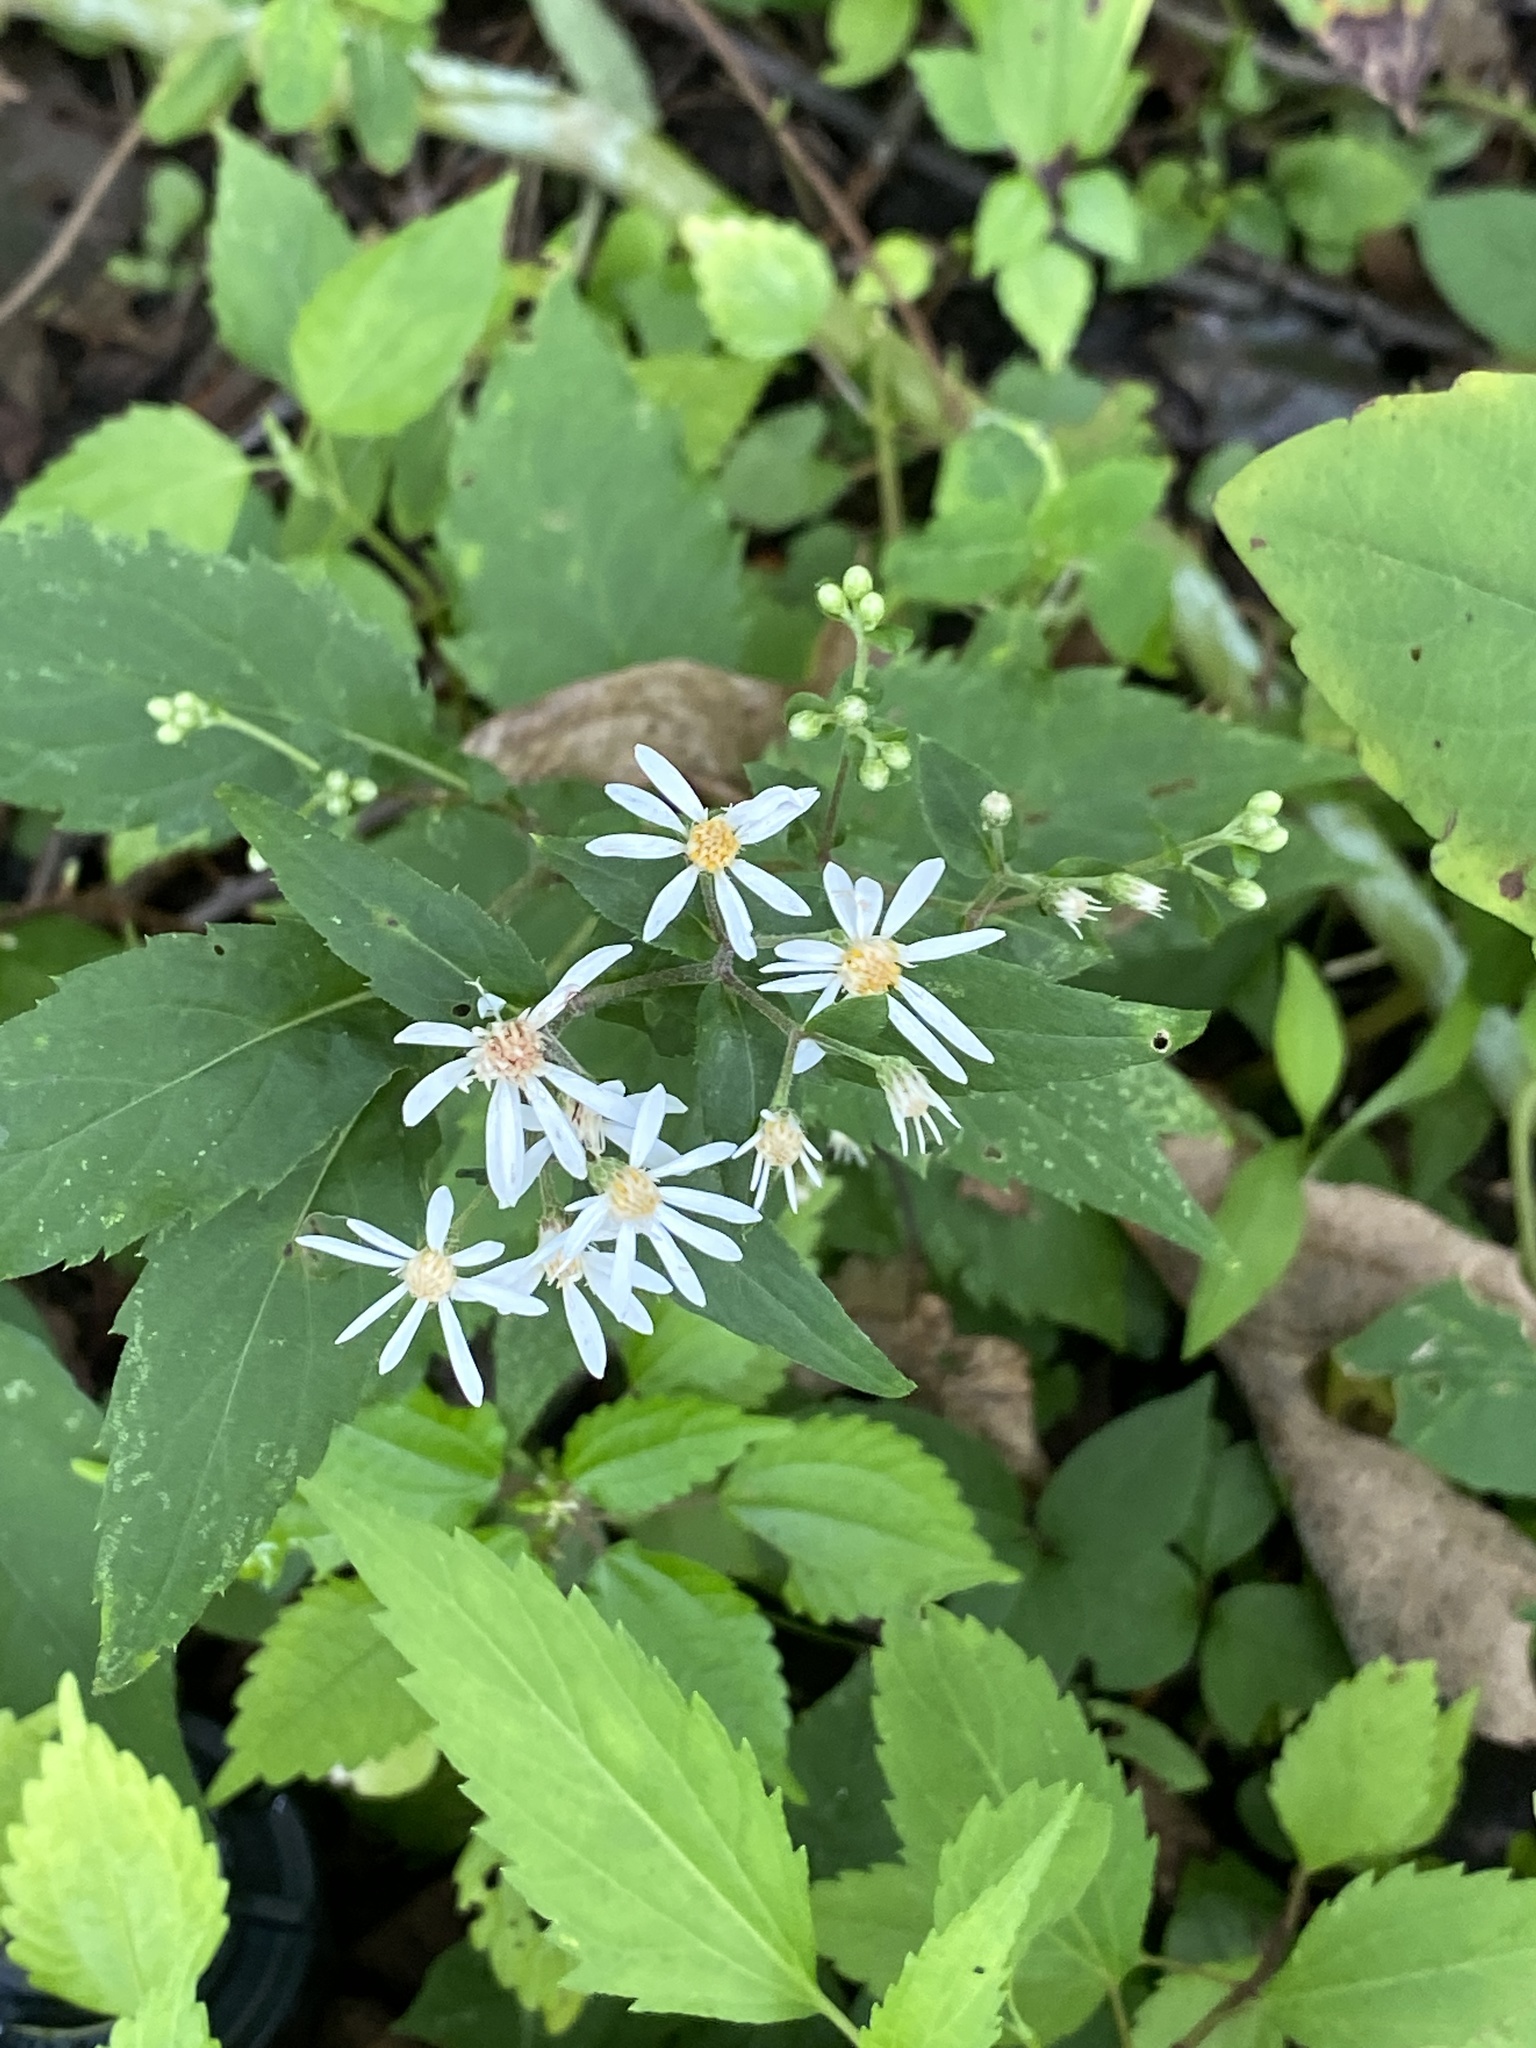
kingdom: Plantae
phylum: Tracheophyta
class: Magnoliopsida
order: Asterales
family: Asteraceae
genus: Eurybia
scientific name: Eurybia divaricata
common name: White wood aster
